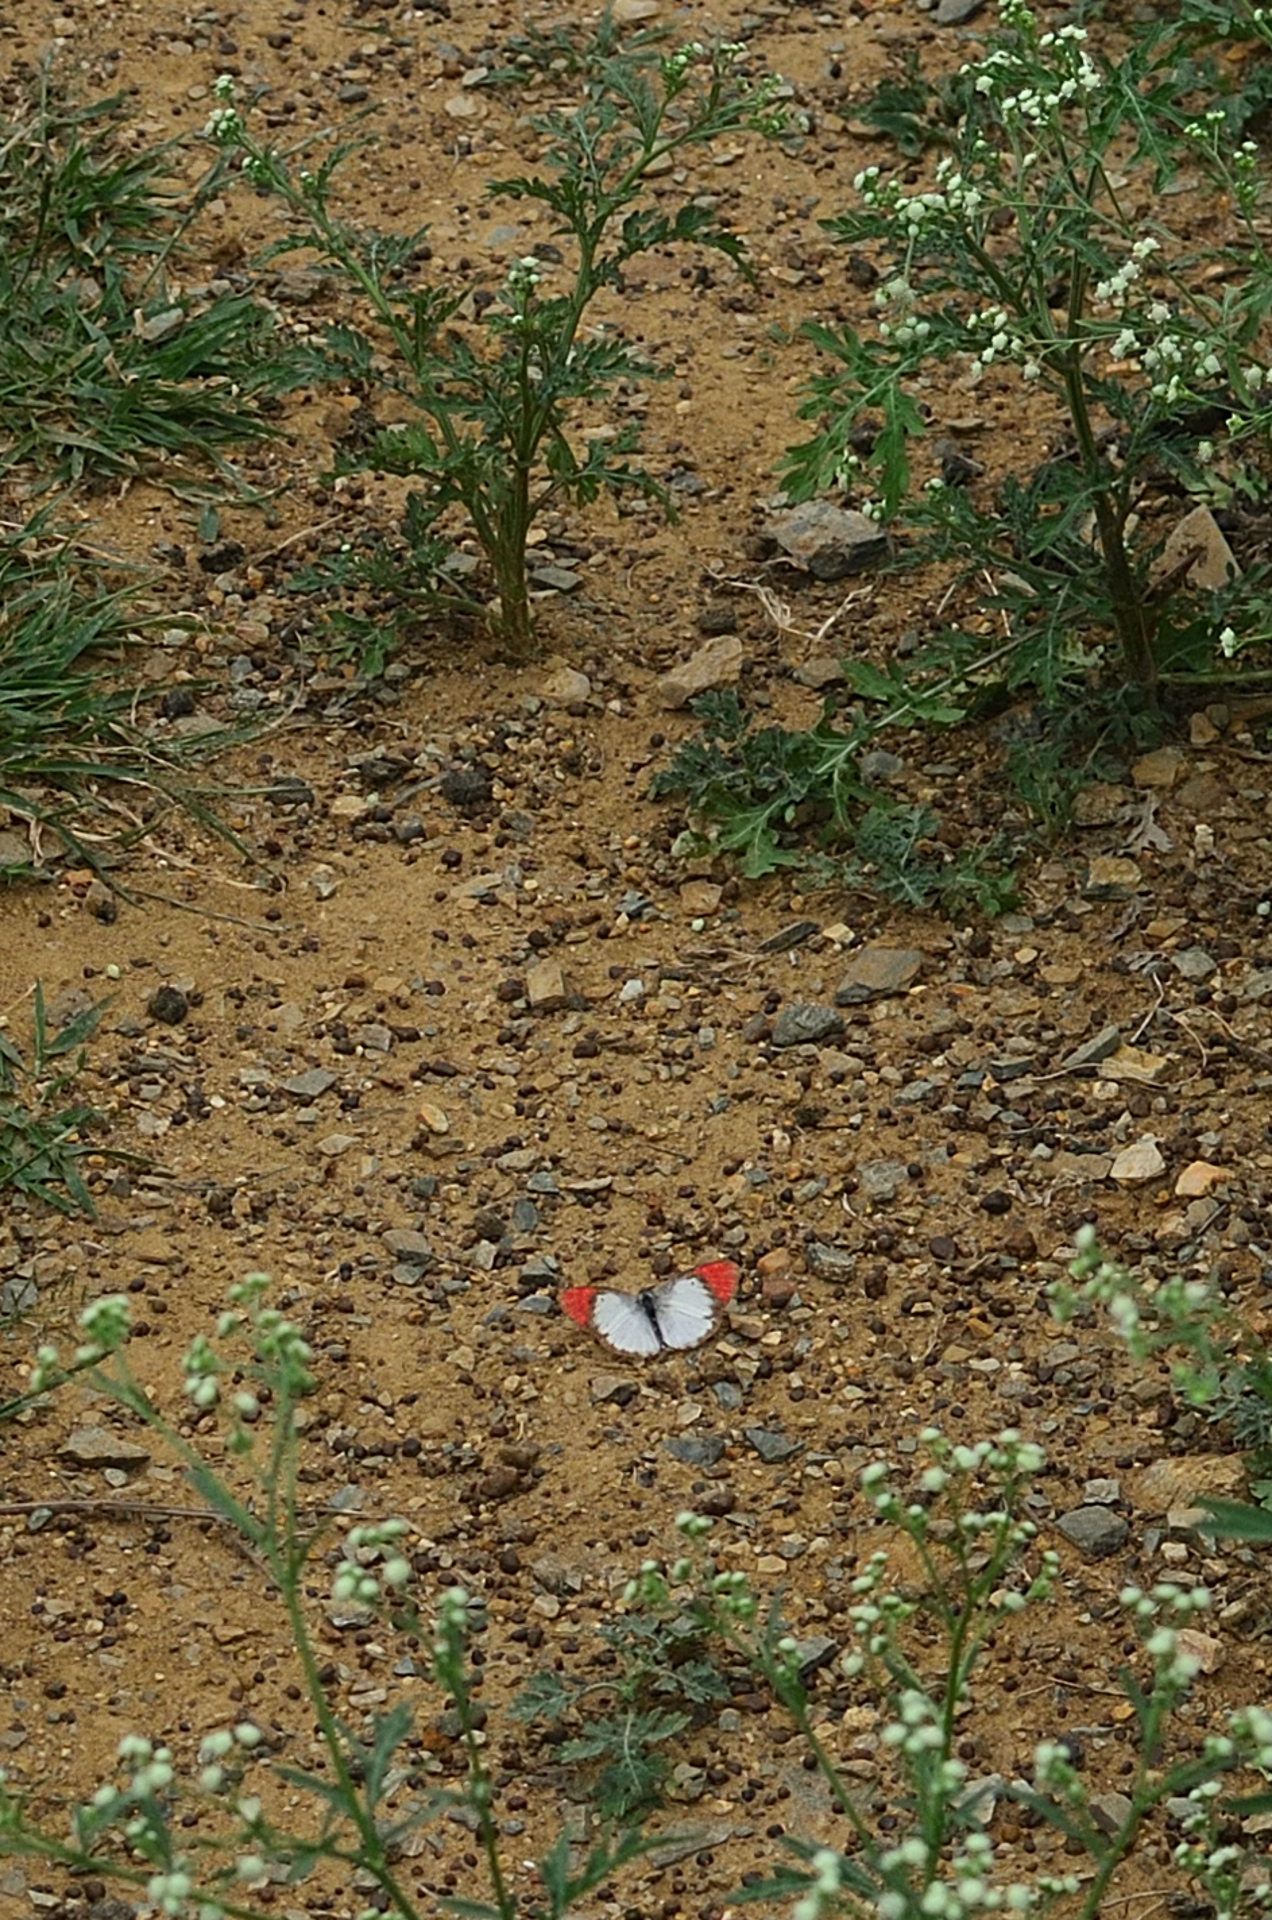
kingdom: Animalia
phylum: Arthropoda
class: Insecta
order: Lepidoptera
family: Pieridae
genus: Colotis
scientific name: Colotis danae
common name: Crimson tip
